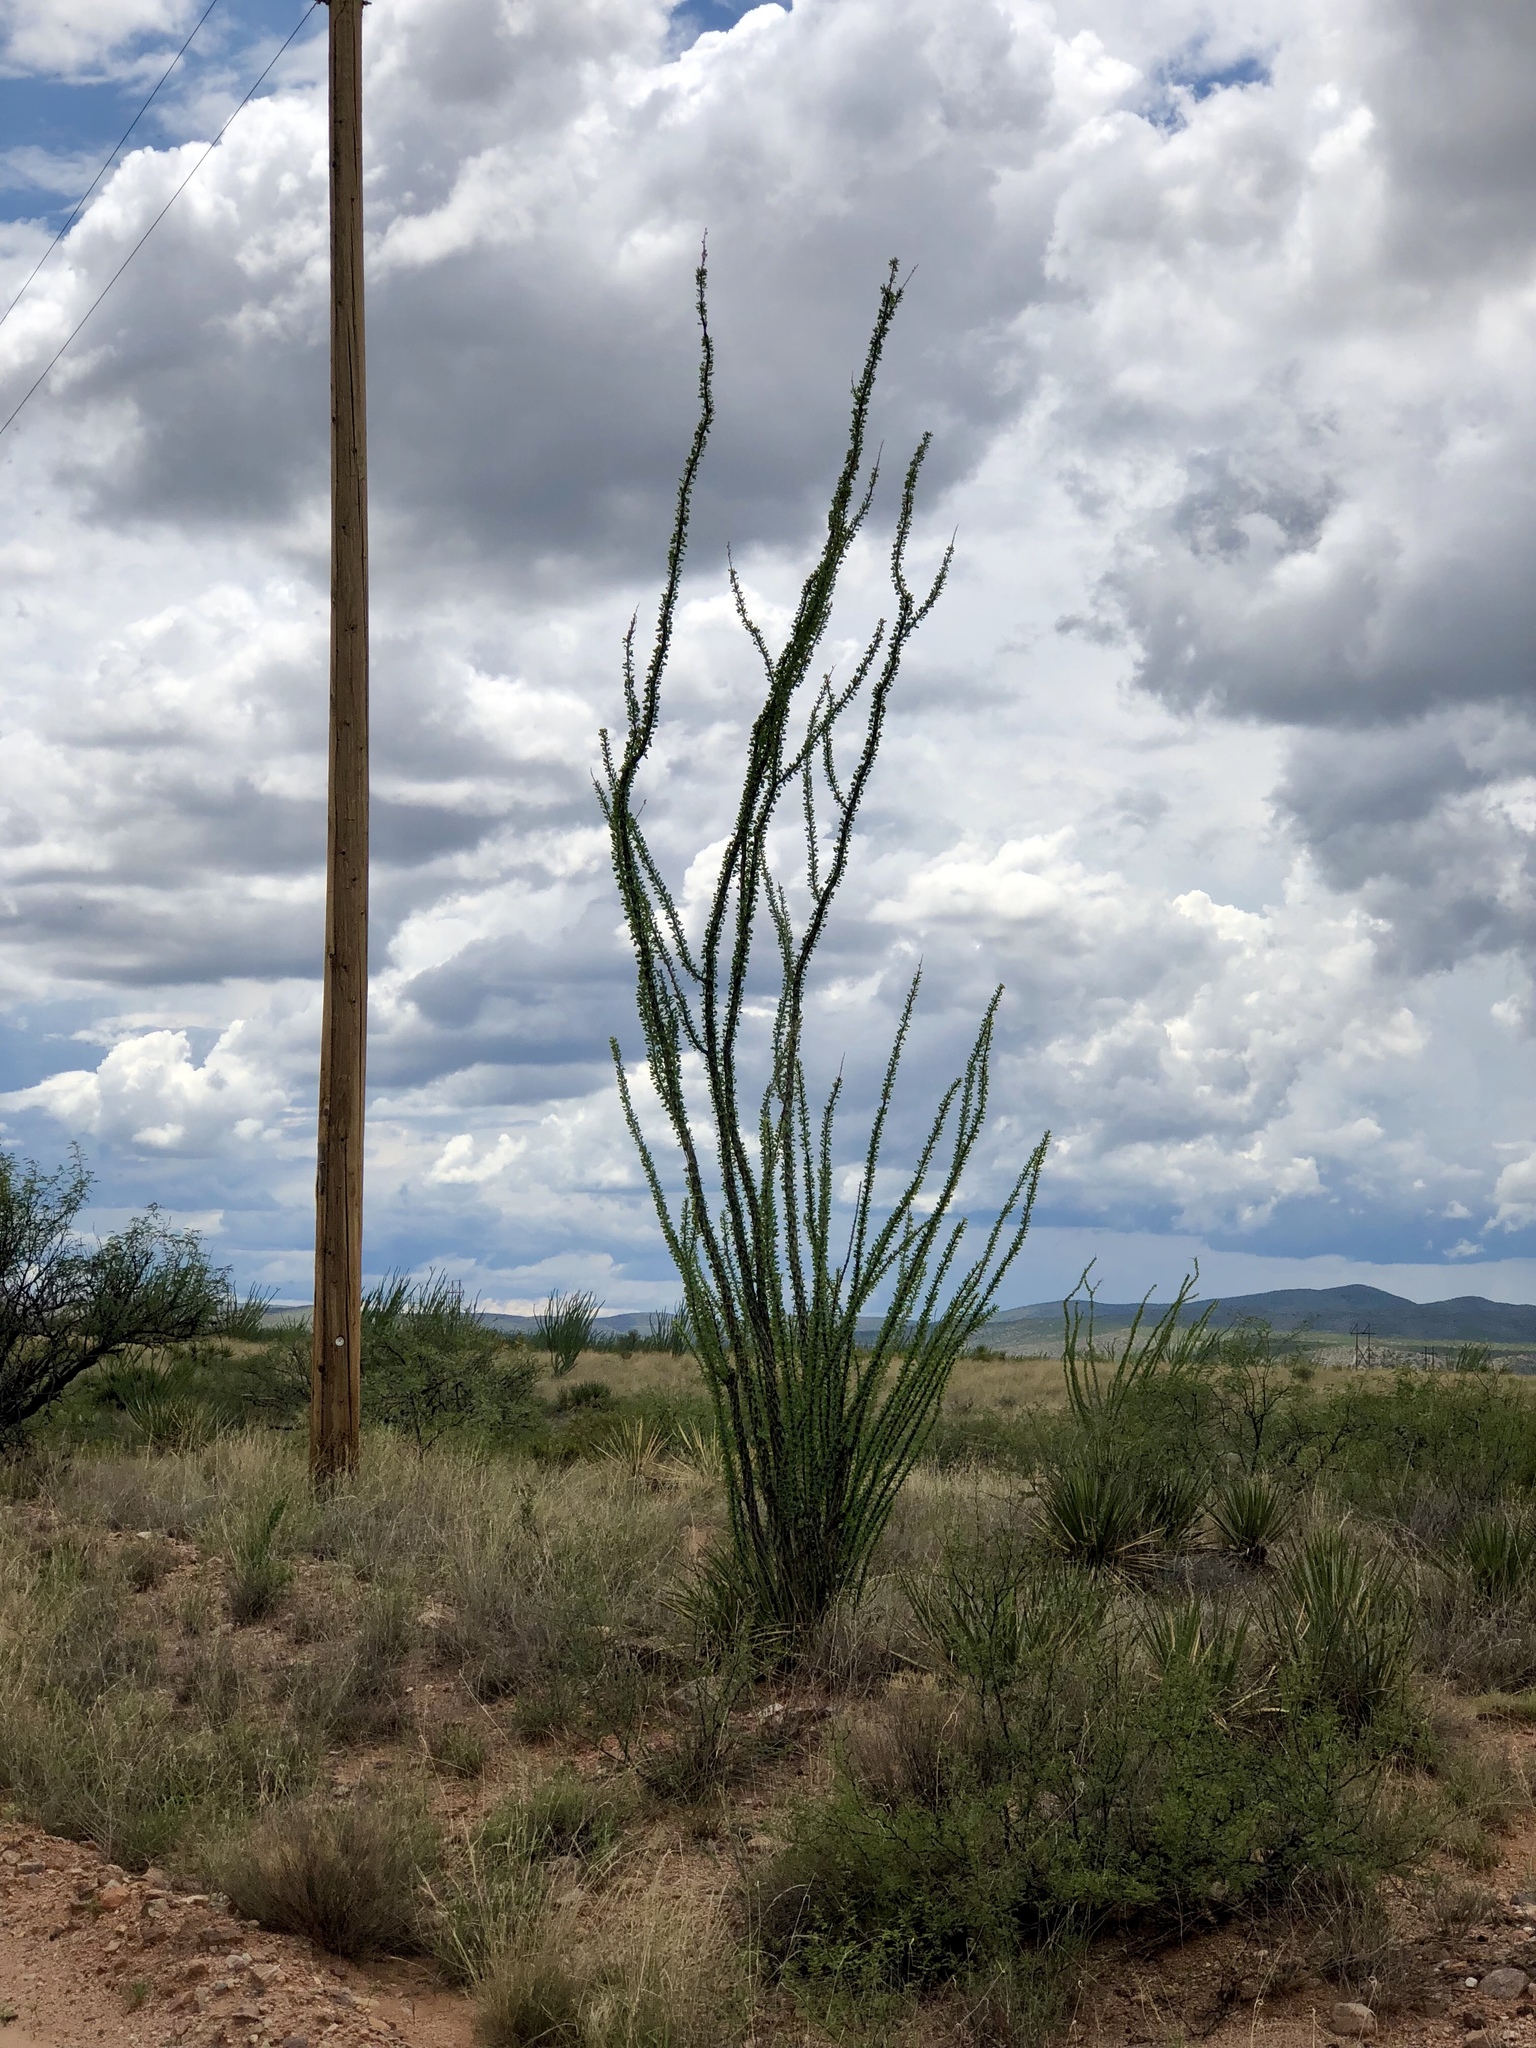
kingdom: Plantae
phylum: Tracheophyta
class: Magnoliopsida
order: Ericales
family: Fouquieriaceae
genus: Fouquieria
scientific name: Fouquieria splendens
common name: Vine-cactus
